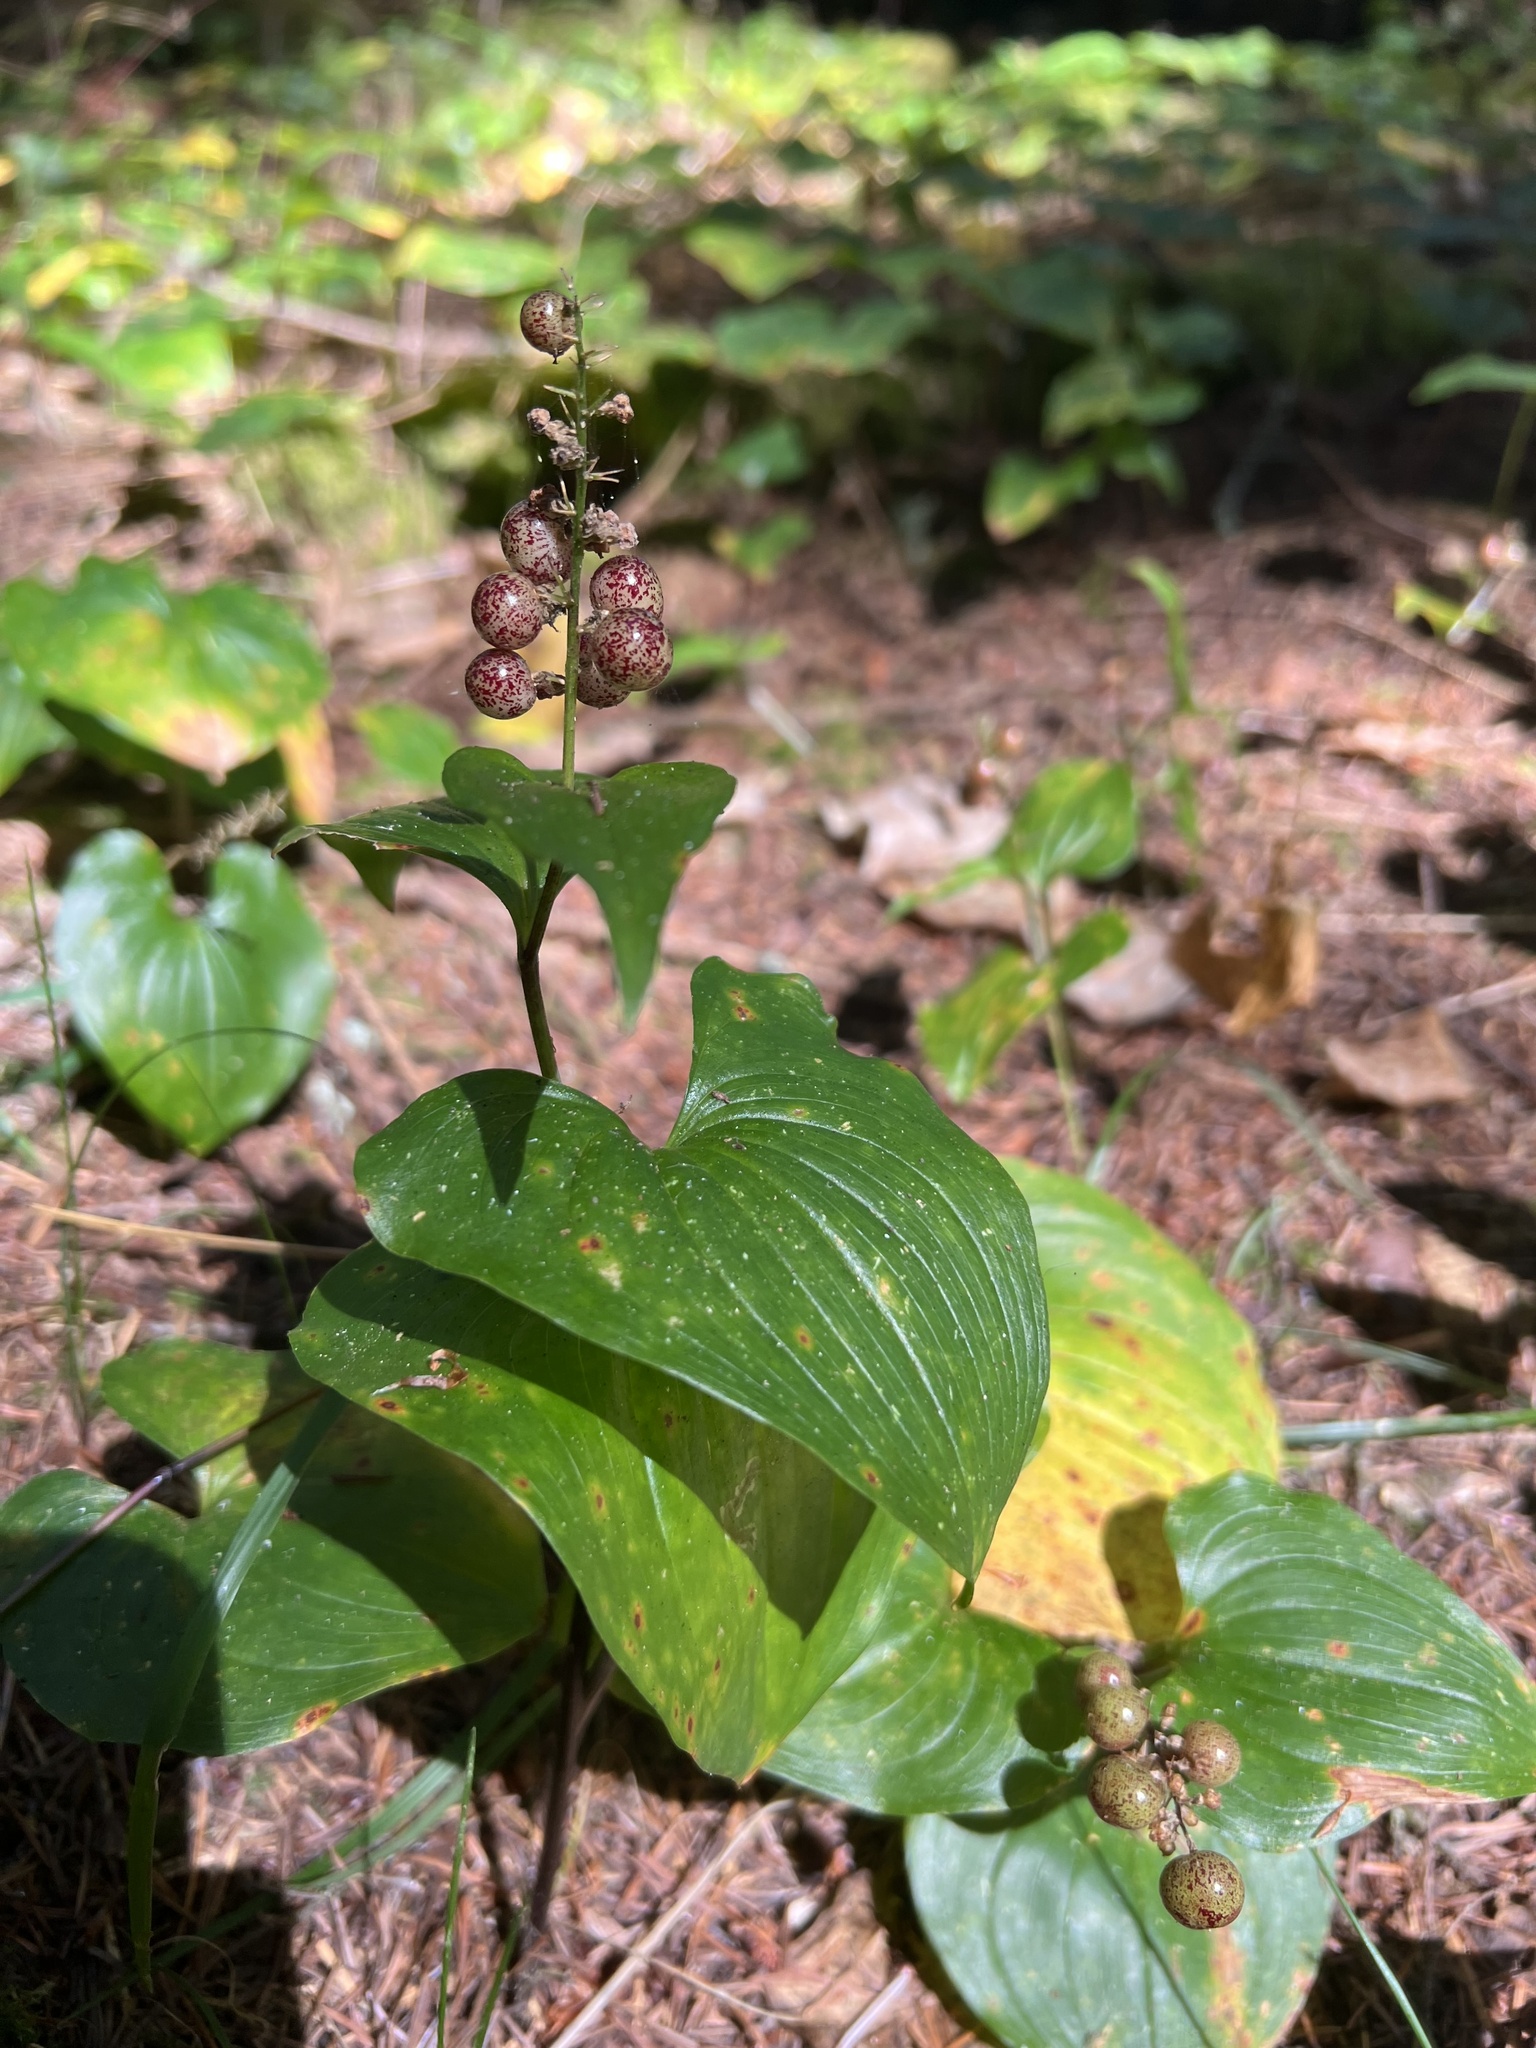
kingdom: Plantae
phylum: Tracheophyta
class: Liliopsida
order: Asparagales
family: Asparagaceae
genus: Maianthemum
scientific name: Maianthemum dilatatum
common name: False lily-of-the-valley
